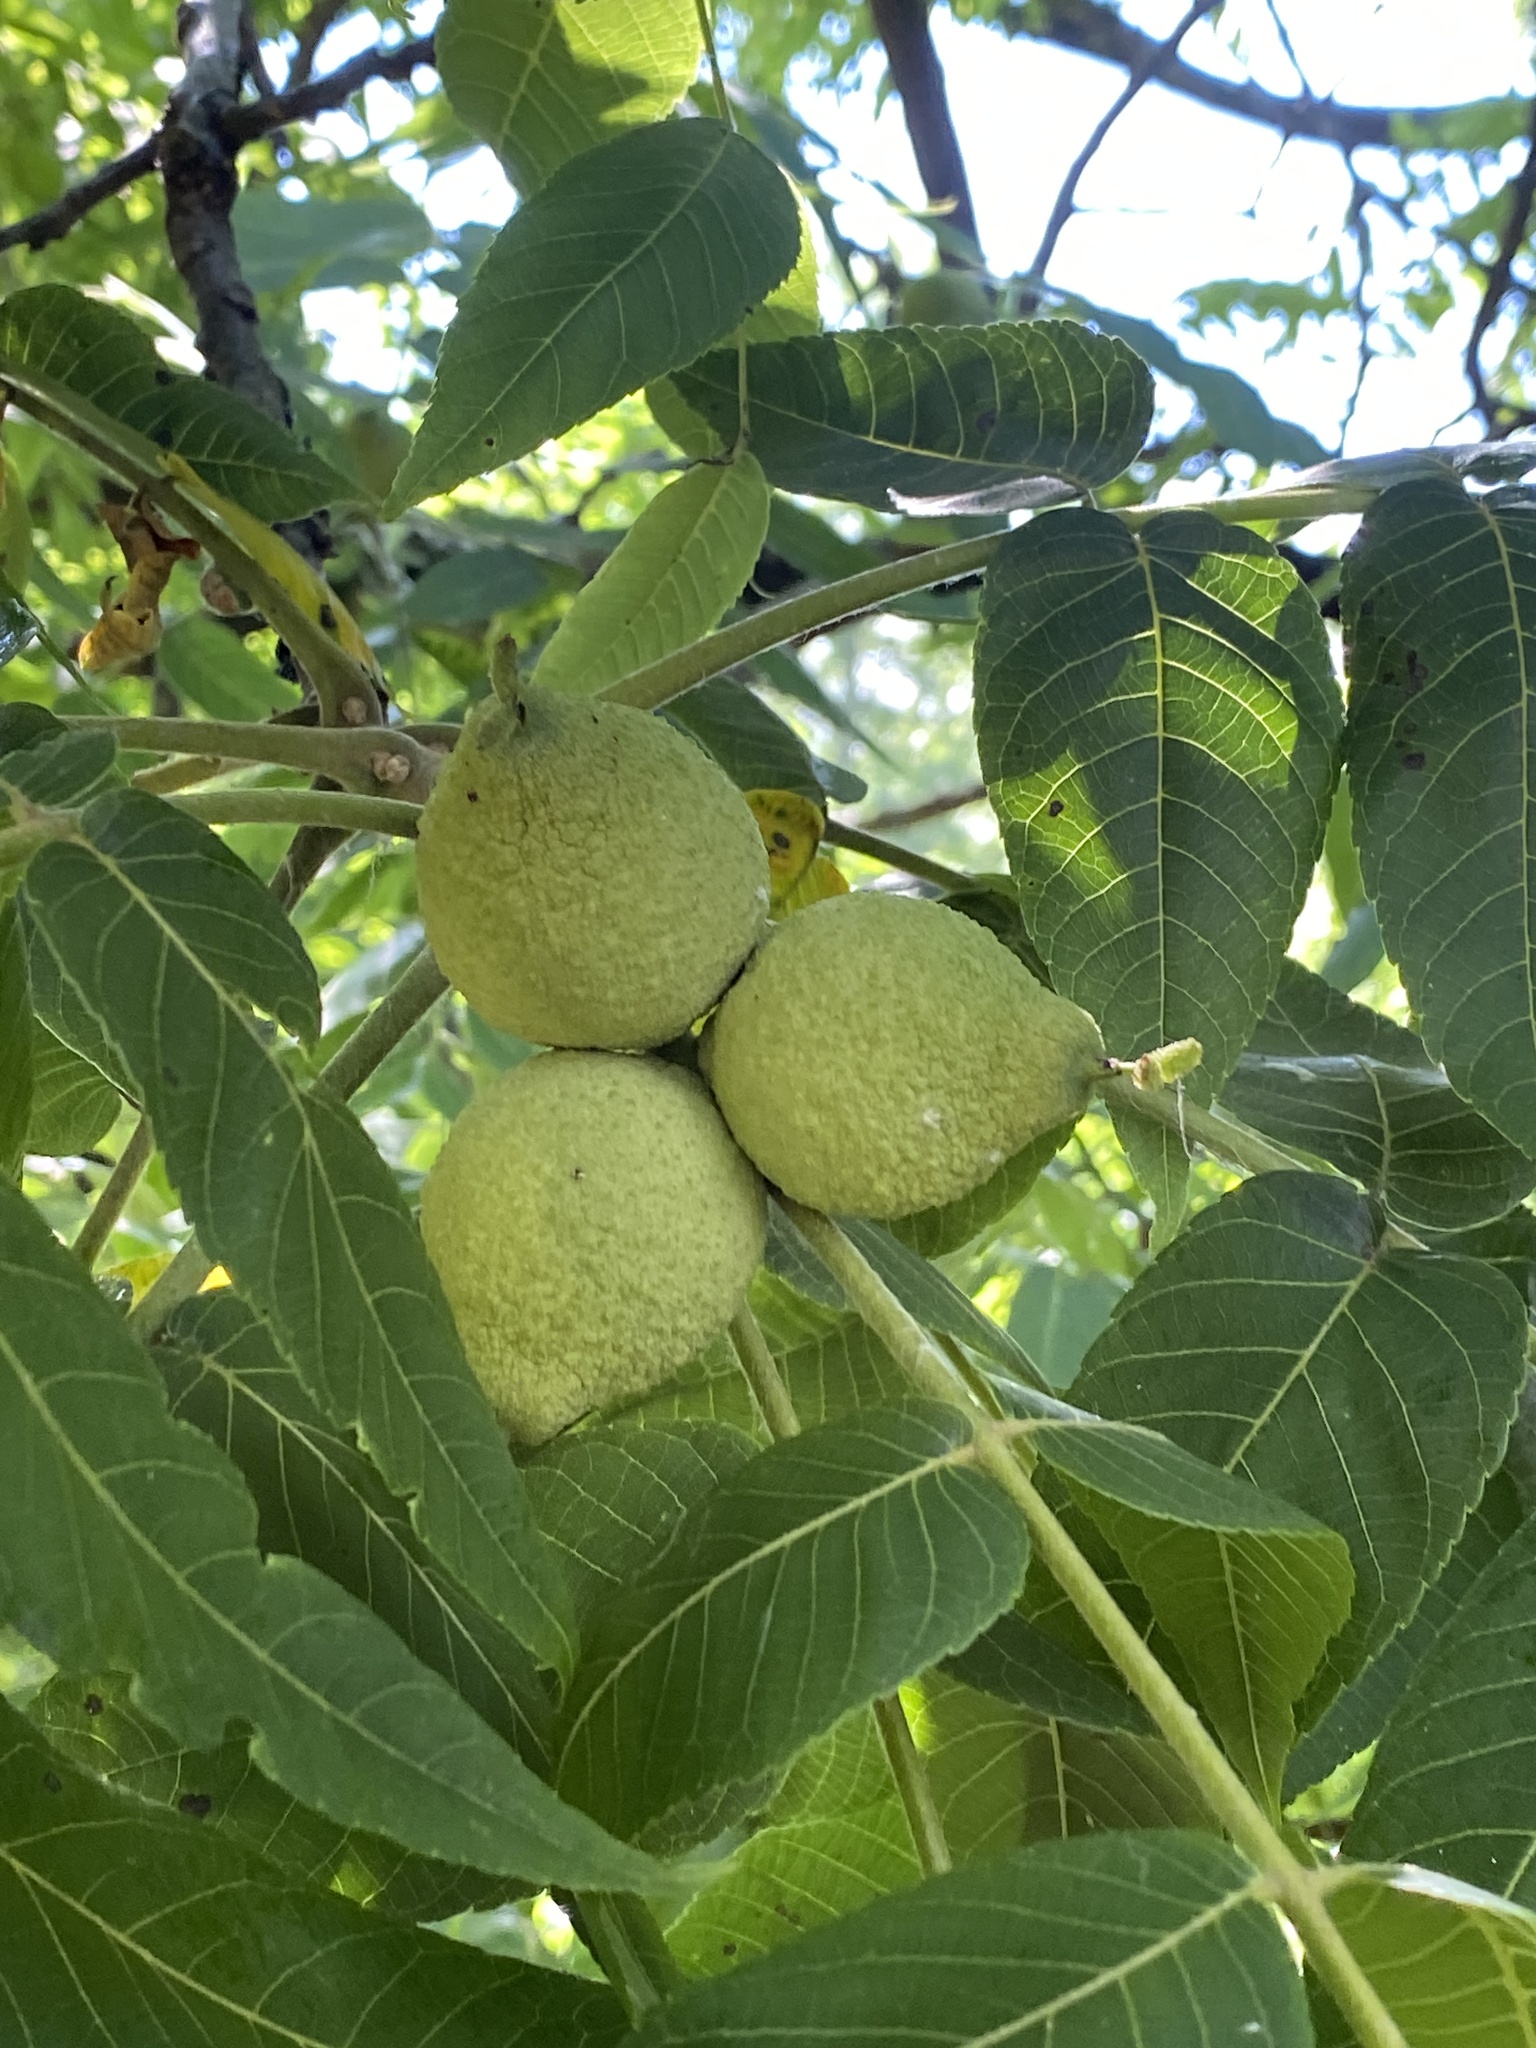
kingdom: Plantae
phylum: Tracheophyta
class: Magnoliopsida
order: Fagales
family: Juglandaceae
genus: Juglans
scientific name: Juglans nigra
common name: Black walnut
